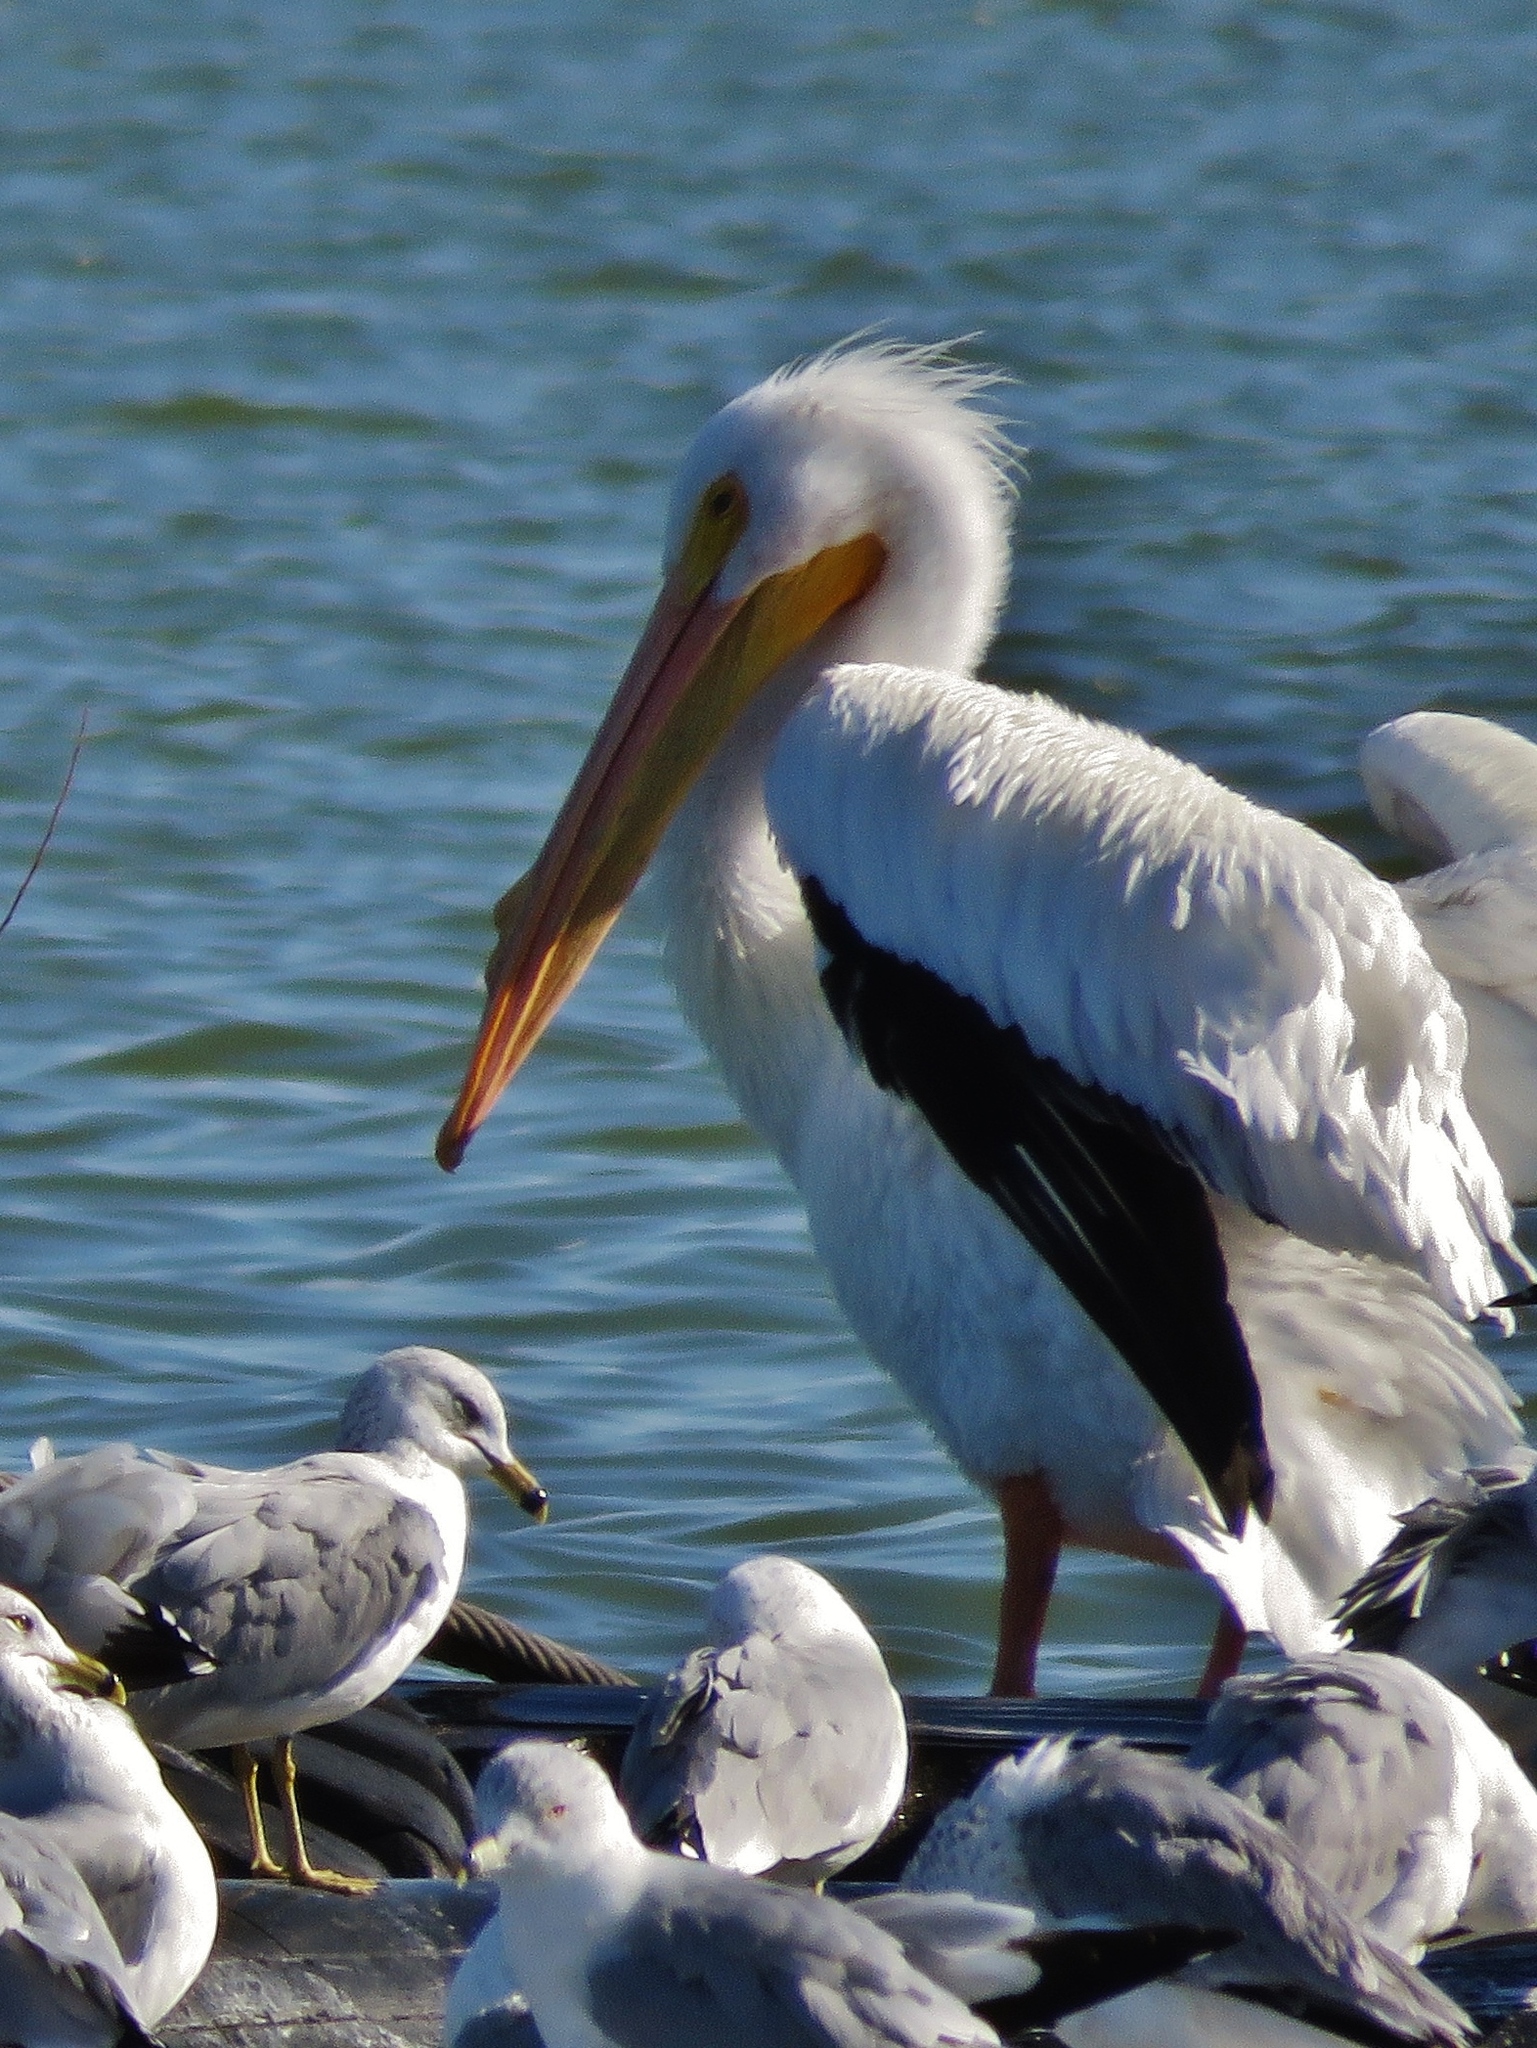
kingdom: Animalia
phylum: Chordata
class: Aves
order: Pelecaniformes
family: Pelecanidae
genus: Pelecanus
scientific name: Pelecanus erythrorhynchos
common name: American white pelican
